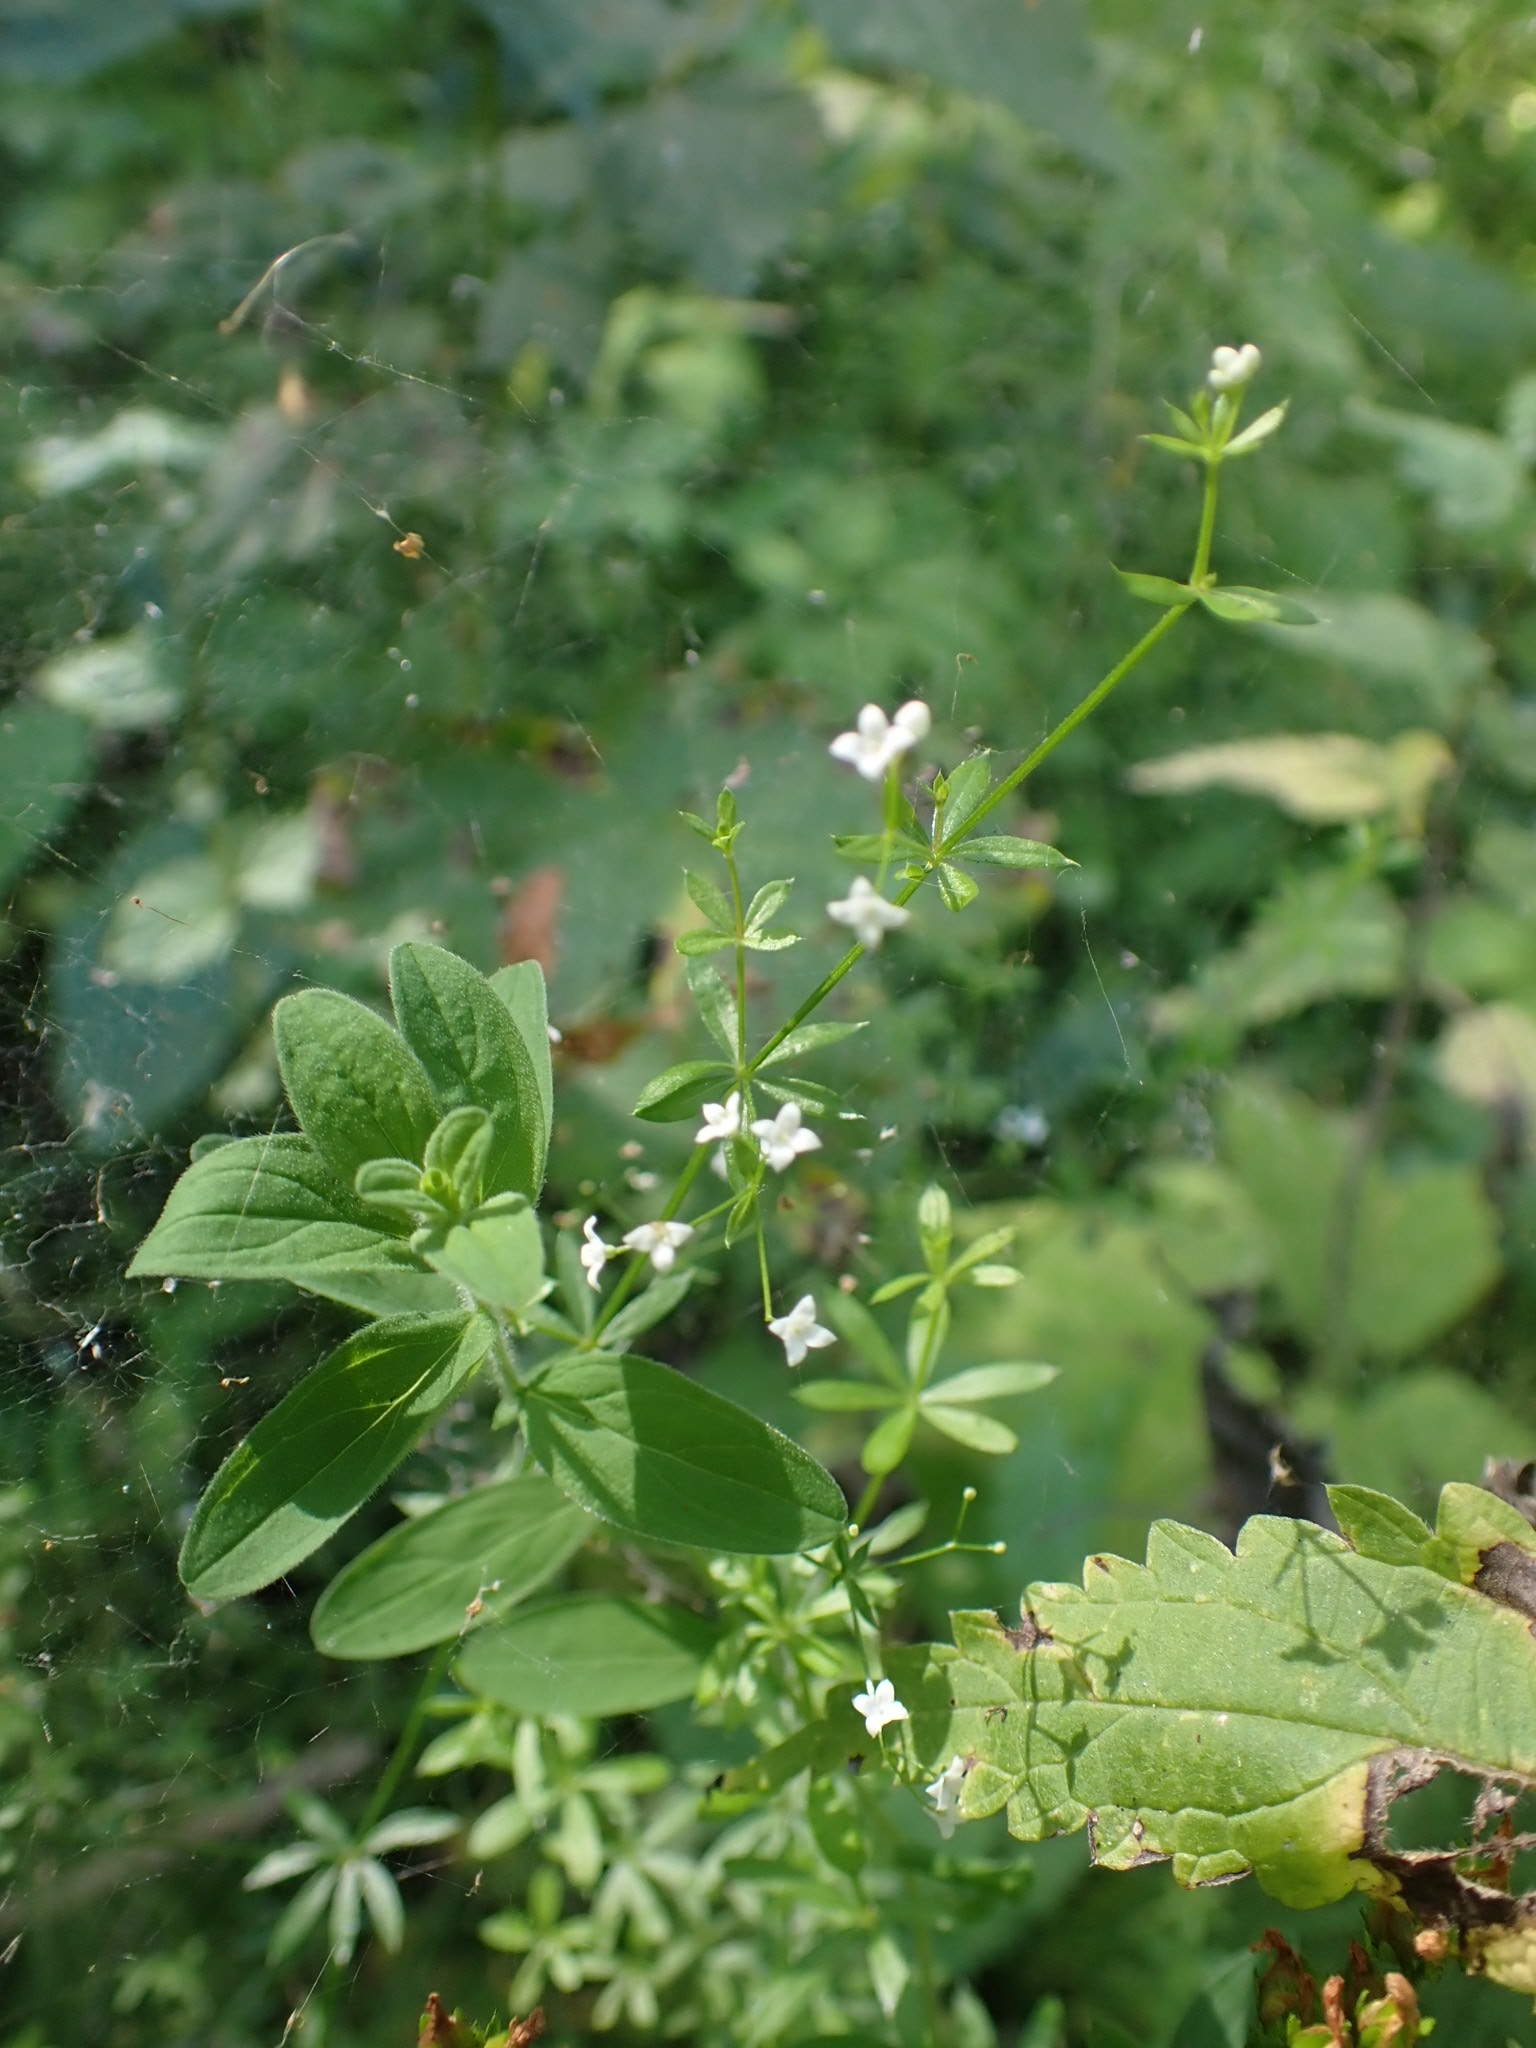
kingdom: Plantae
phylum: Tracheophyta
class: Magnoliopsida
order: Gentianales
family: Rubiaceae
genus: Galium
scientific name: Galium uliginosum
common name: Fen bedstraw
